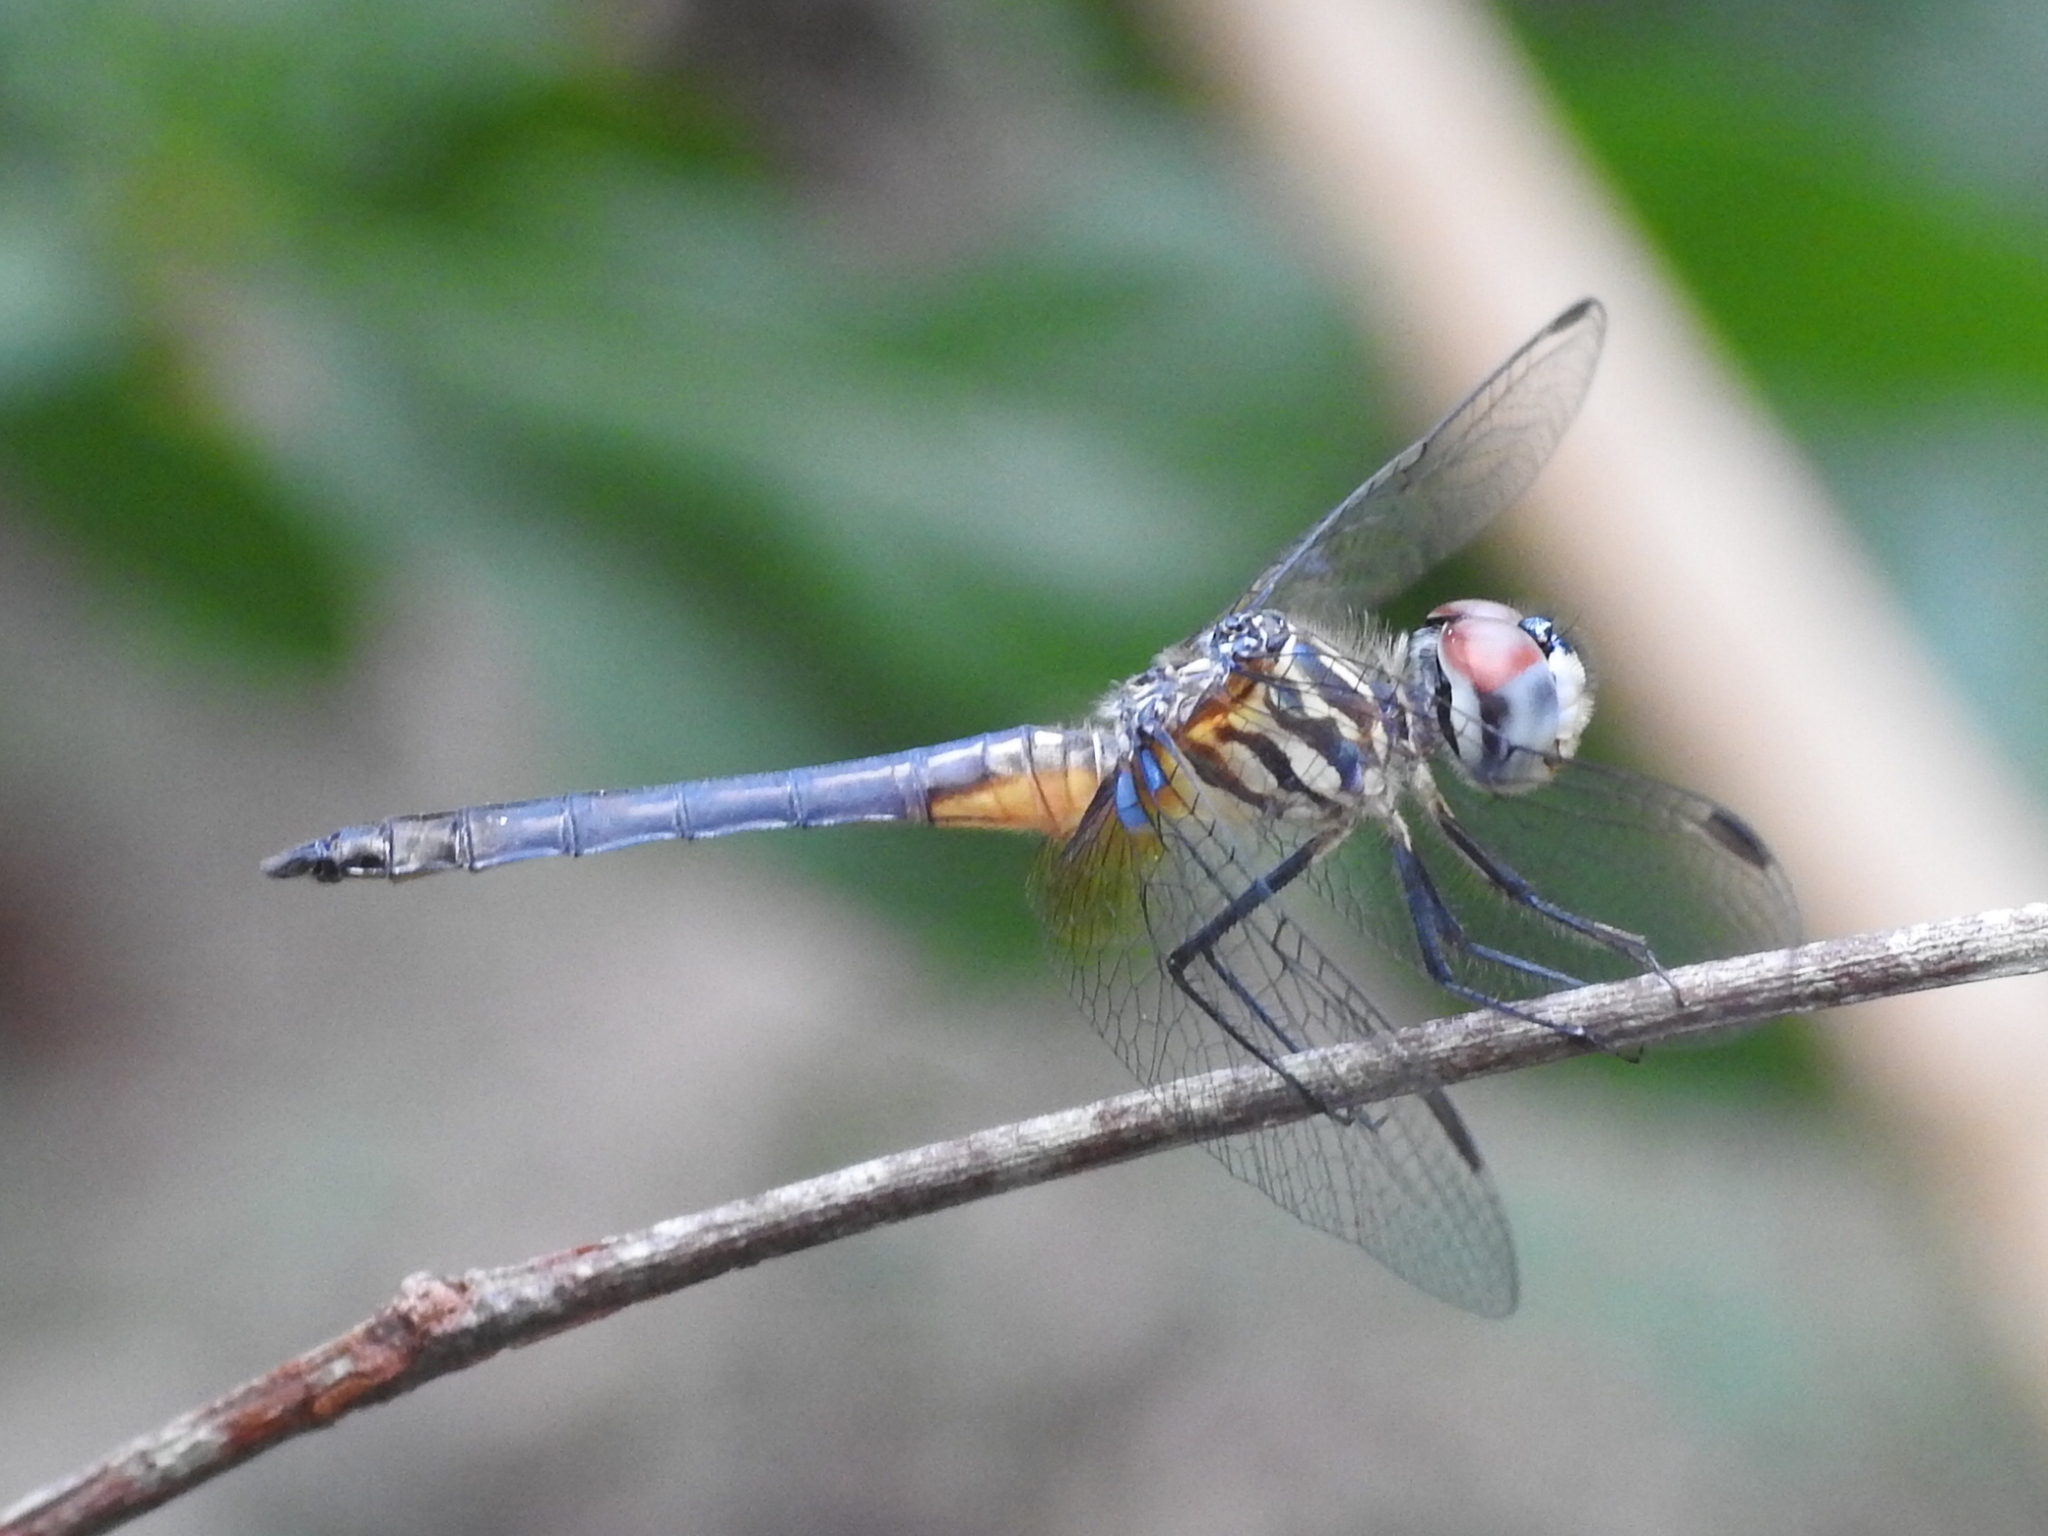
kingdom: Animalia
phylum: Arthropoda
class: Insecta
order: Odonata
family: Libellulidae
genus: Pachydiplax
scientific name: Pachydiplax longipennis
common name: Blue dasher
